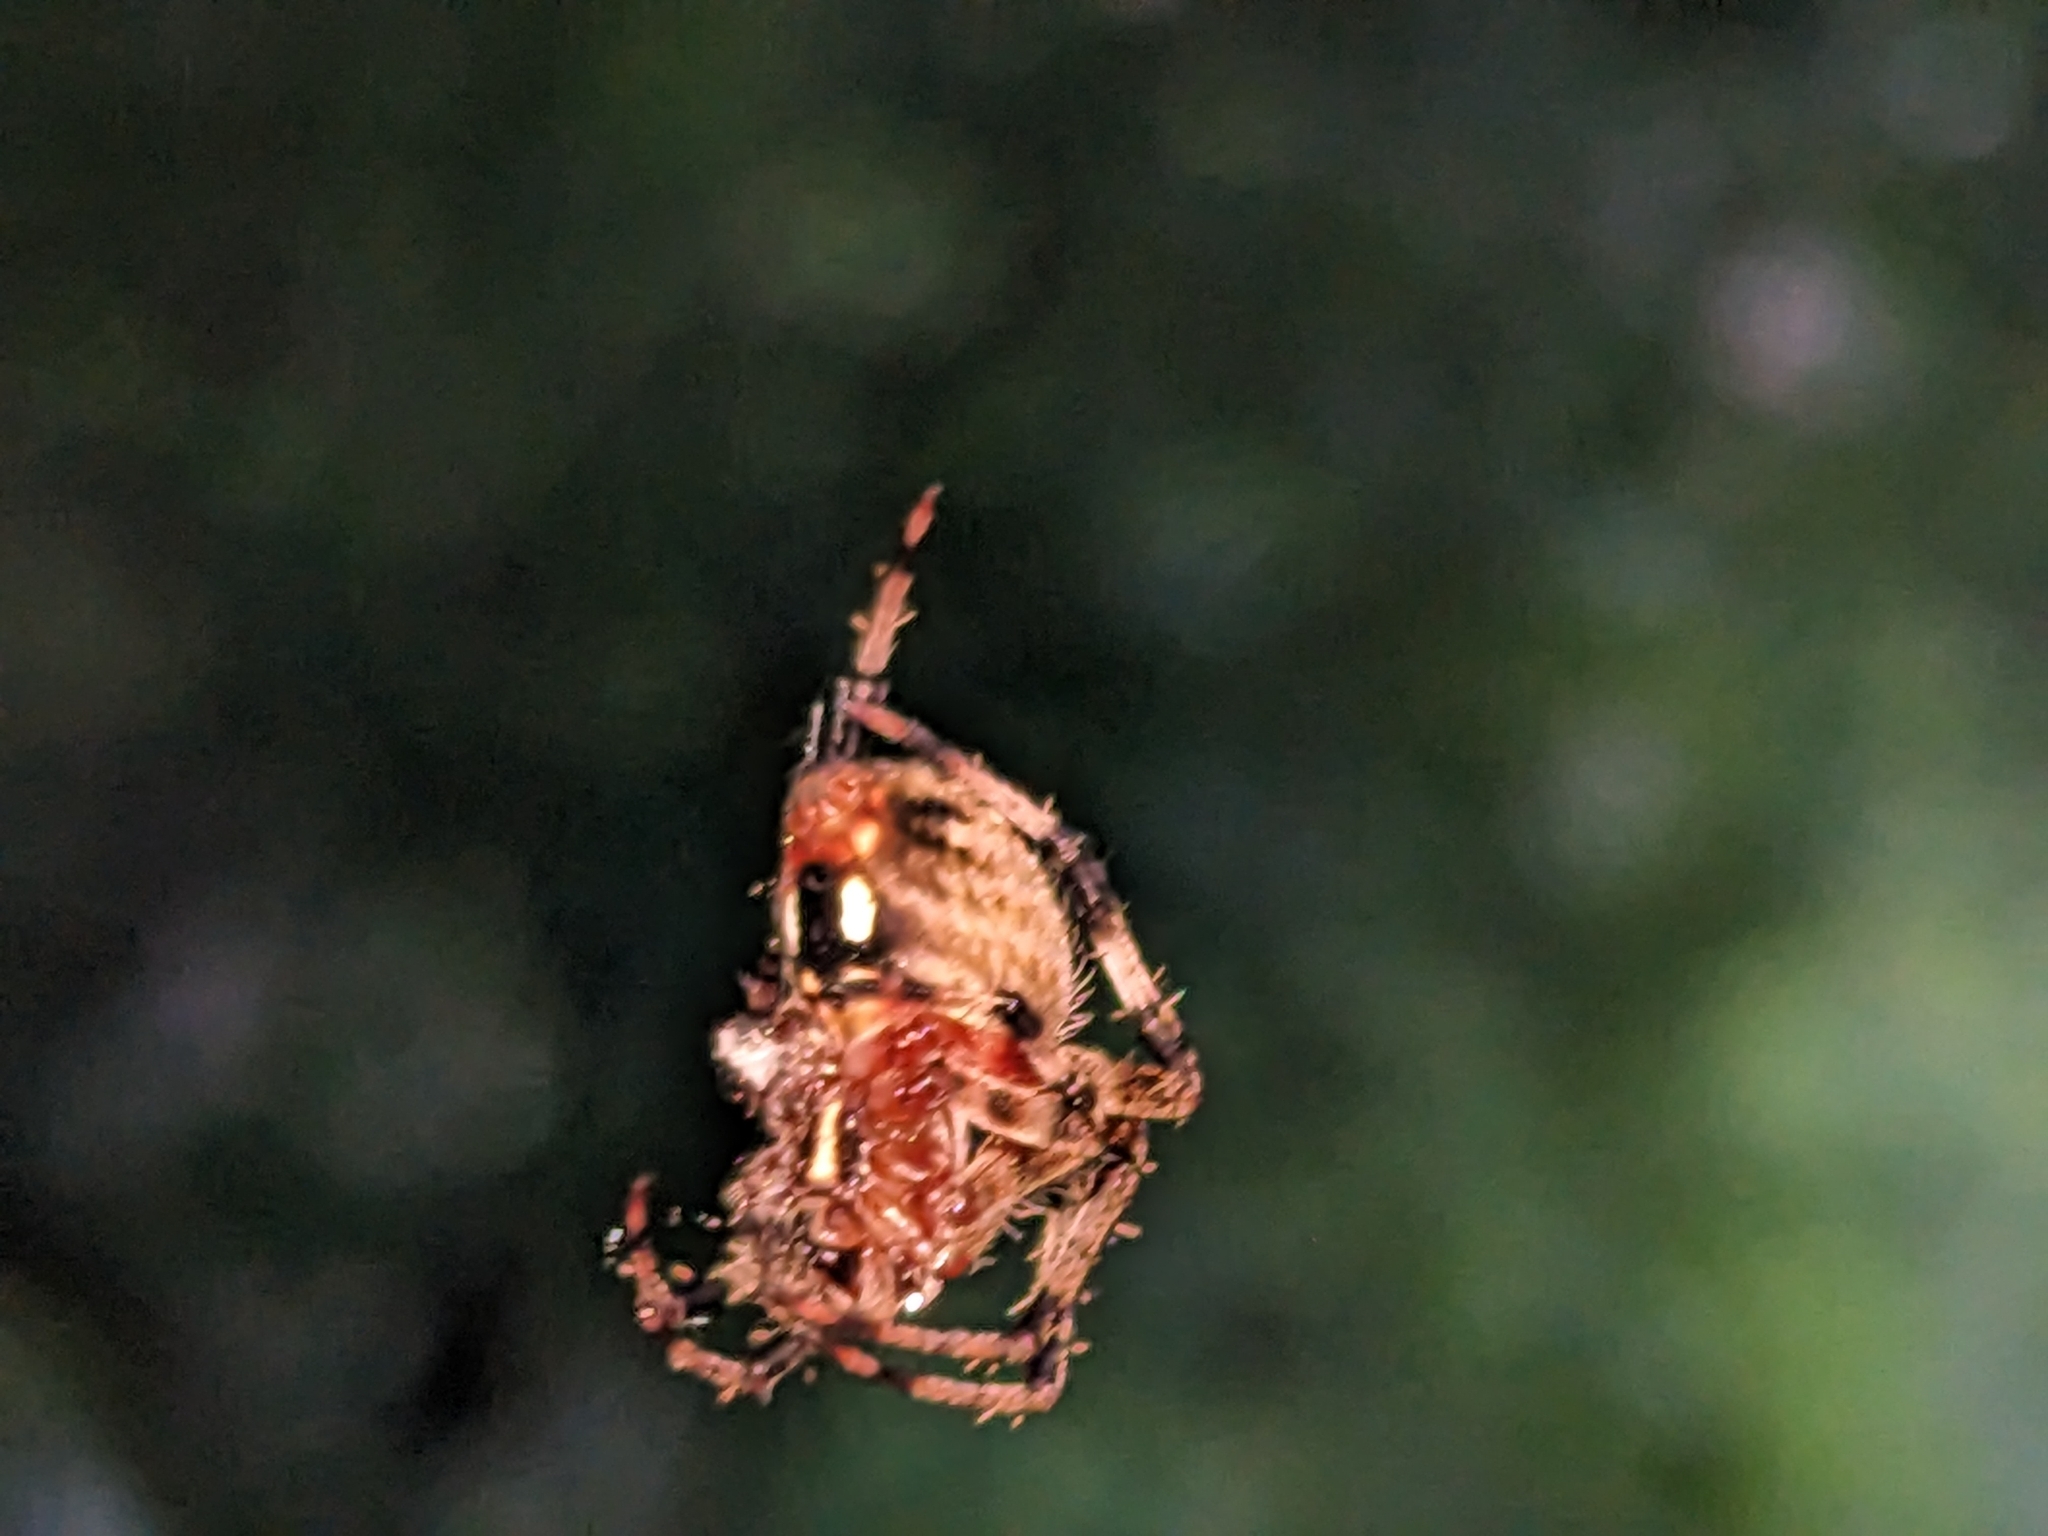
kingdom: Animalia
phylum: Arthropoda
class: Arachnida
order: Araneae
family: Araneidae
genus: Neoscona
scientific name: Neoscona crucifera
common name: Spotted orbweaver
